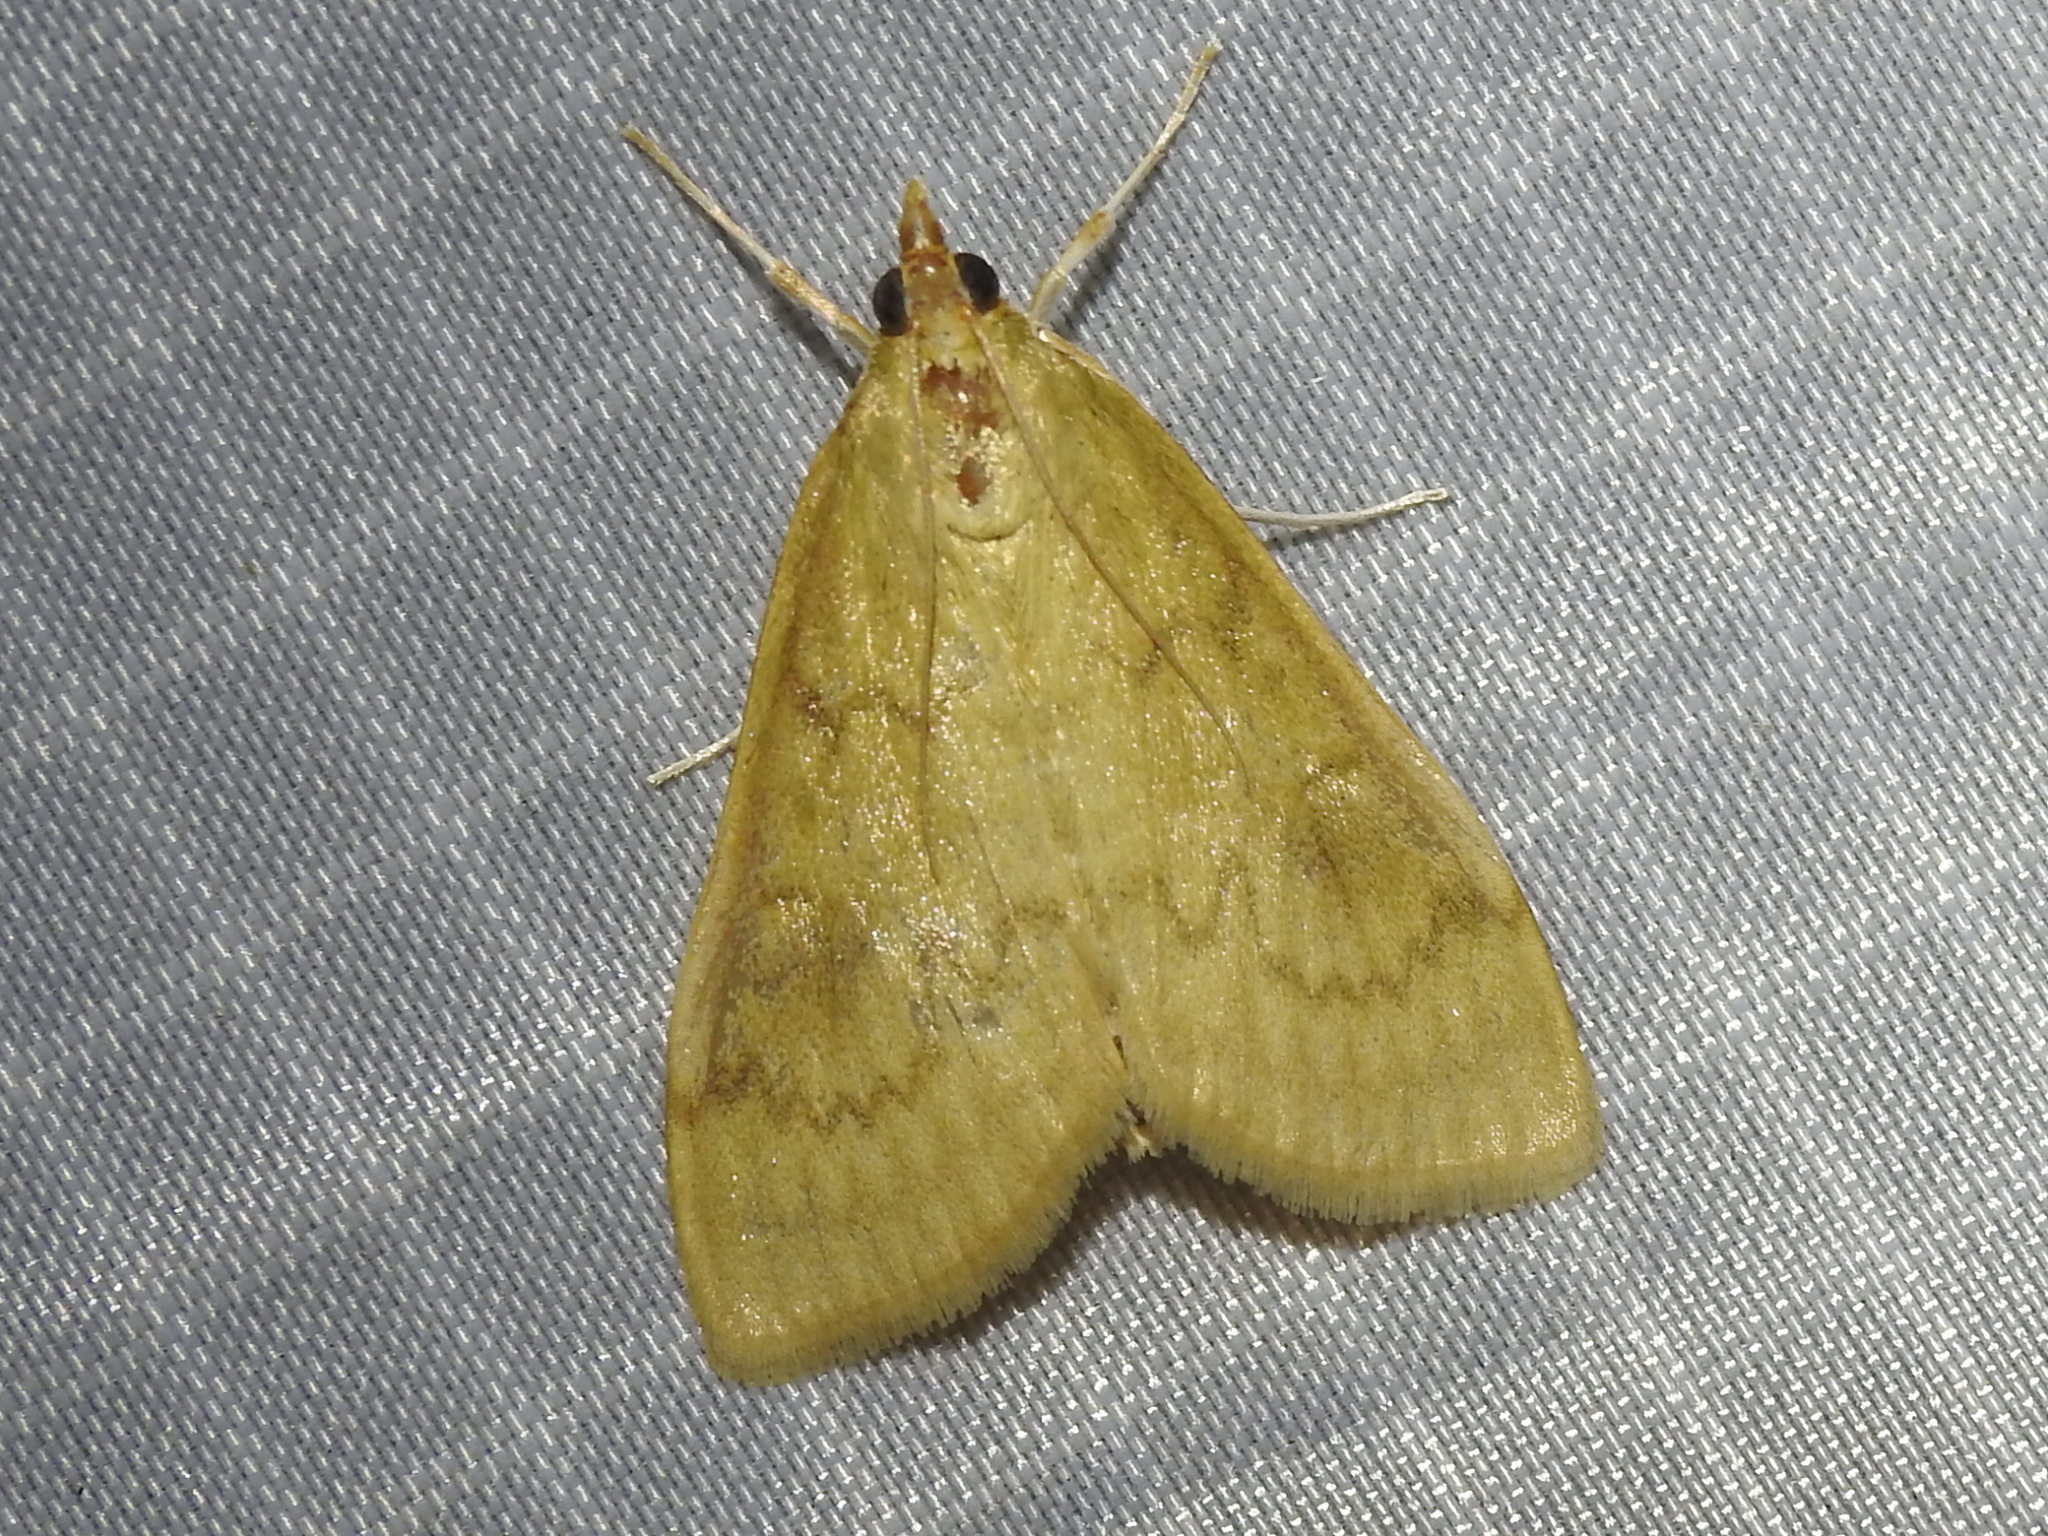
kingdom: Animalia
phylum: Arthropoda
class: Insecta
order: Lepidoptera
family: Crambidae
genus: Ostrinia
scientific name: Ostrinia penitalis
